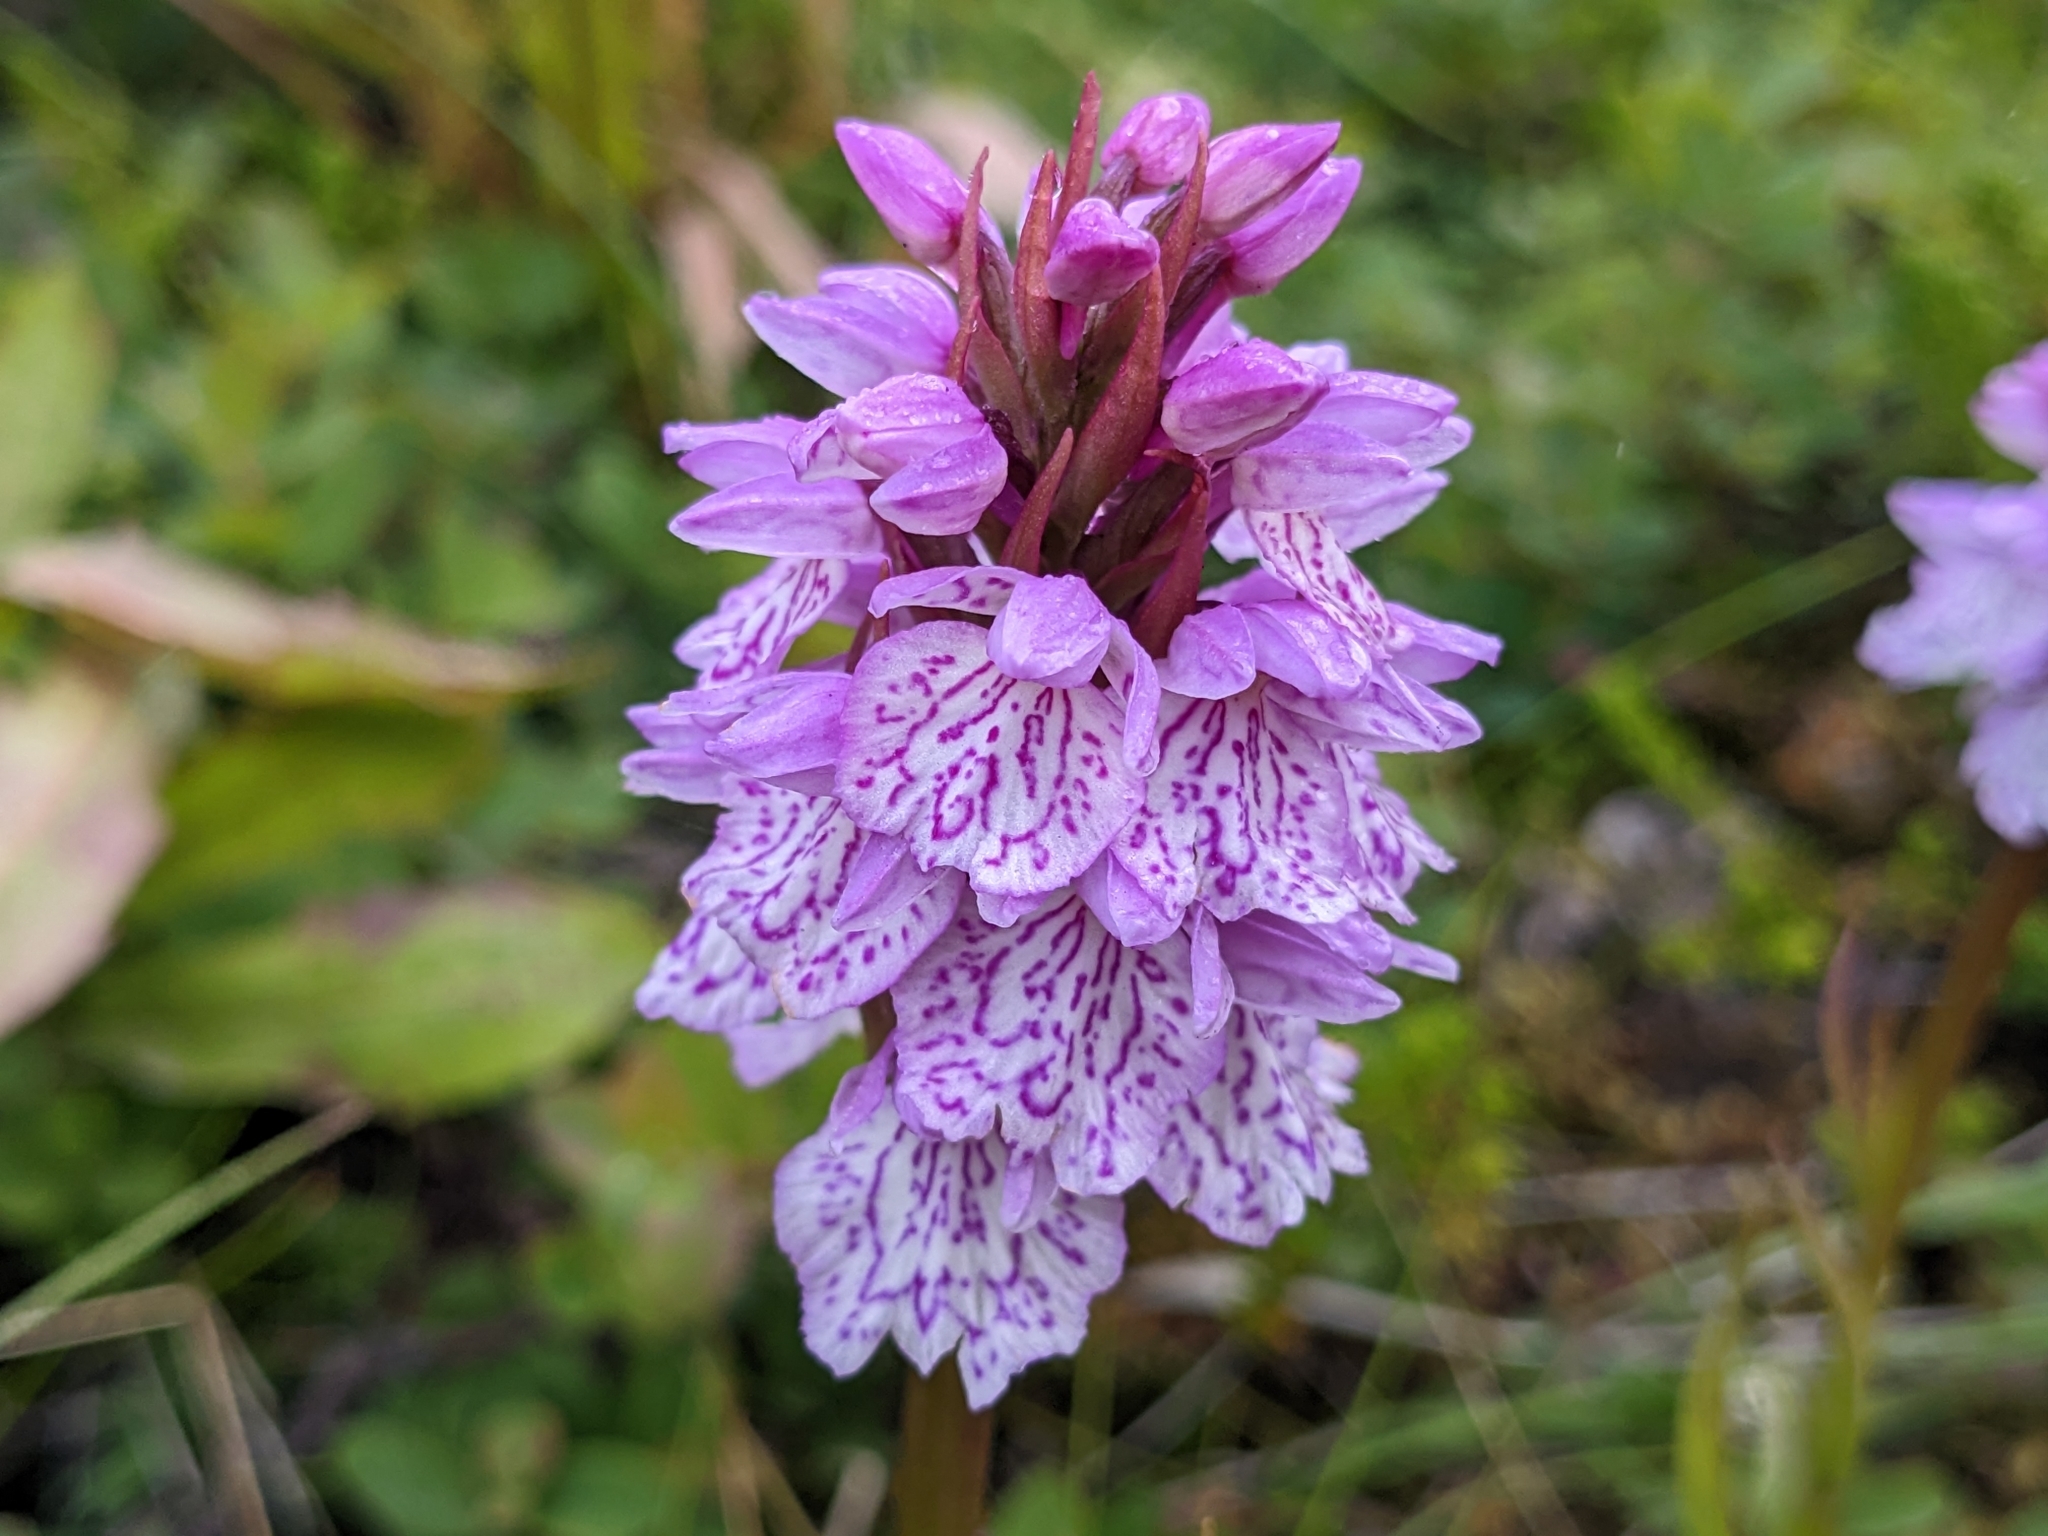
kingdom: Plantae
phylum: Tracheophyta
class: Liliopsida
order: Asparagales
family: Orchidaceae
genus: Dactylorhiza
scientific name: Dactylorhiza maculata
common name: Heath spotted-orchid
